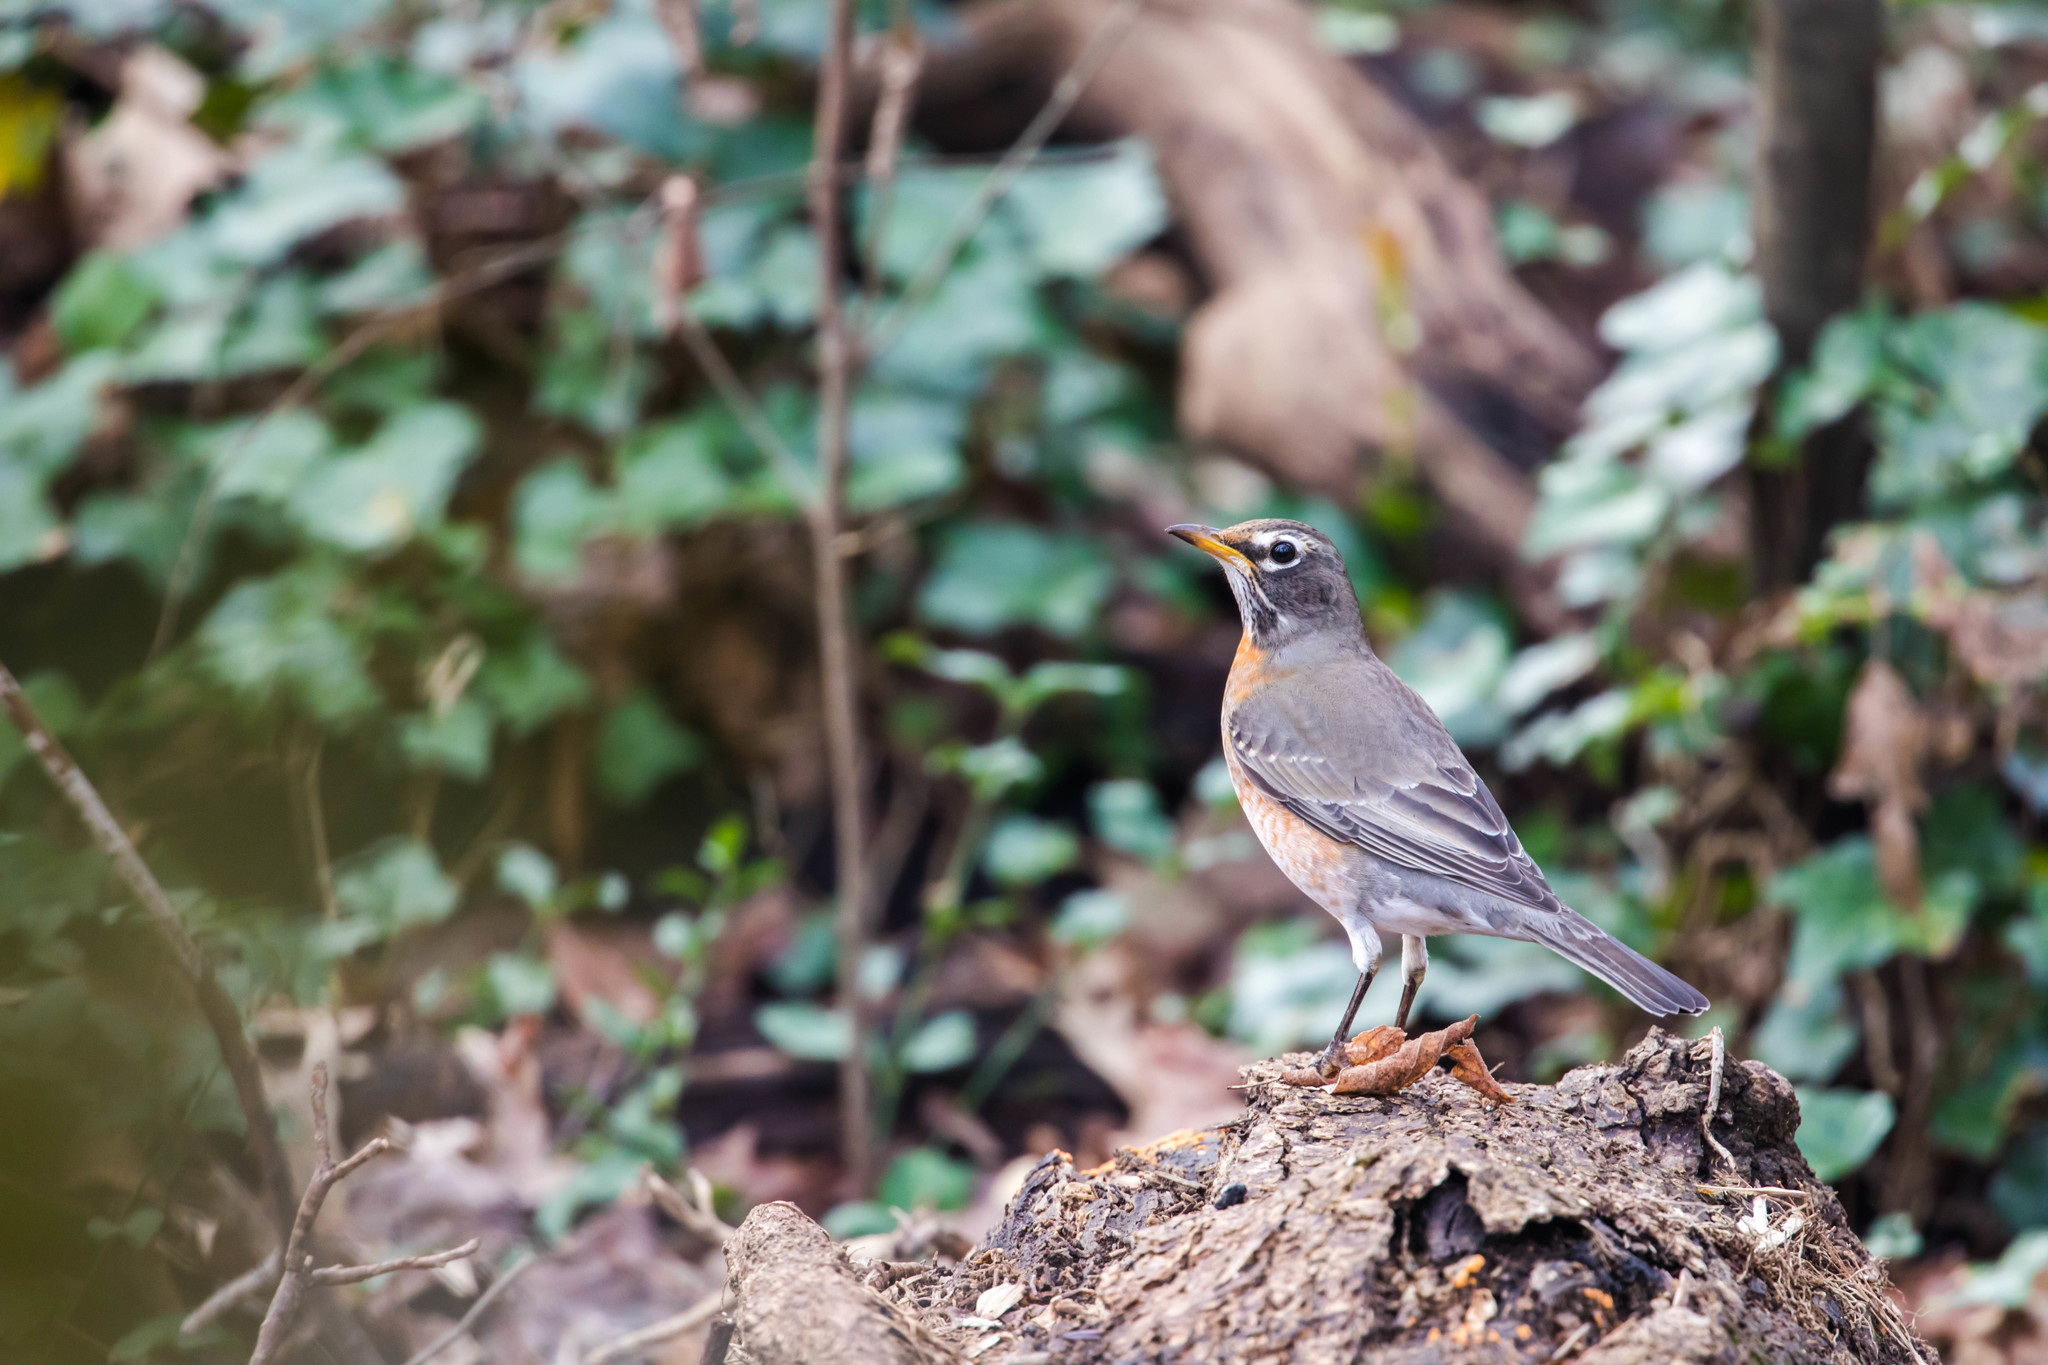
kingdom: Animalia
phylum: Chordata
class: Aves
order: Passeriformes
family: Turdidae
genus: Turdus
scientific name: Turdus migratorius
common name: American robin
